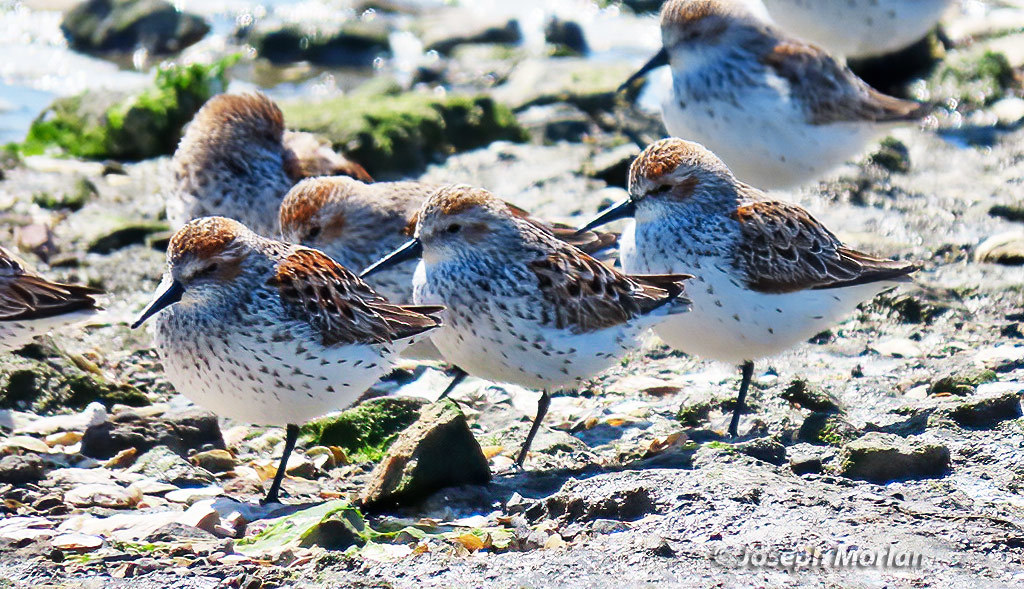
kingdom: Animalia
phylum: Chordata
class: Aves
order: Charadriiformes
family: Scolopacidae
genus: Calidris
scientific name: Calidris mauri
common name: Western sandpiper
